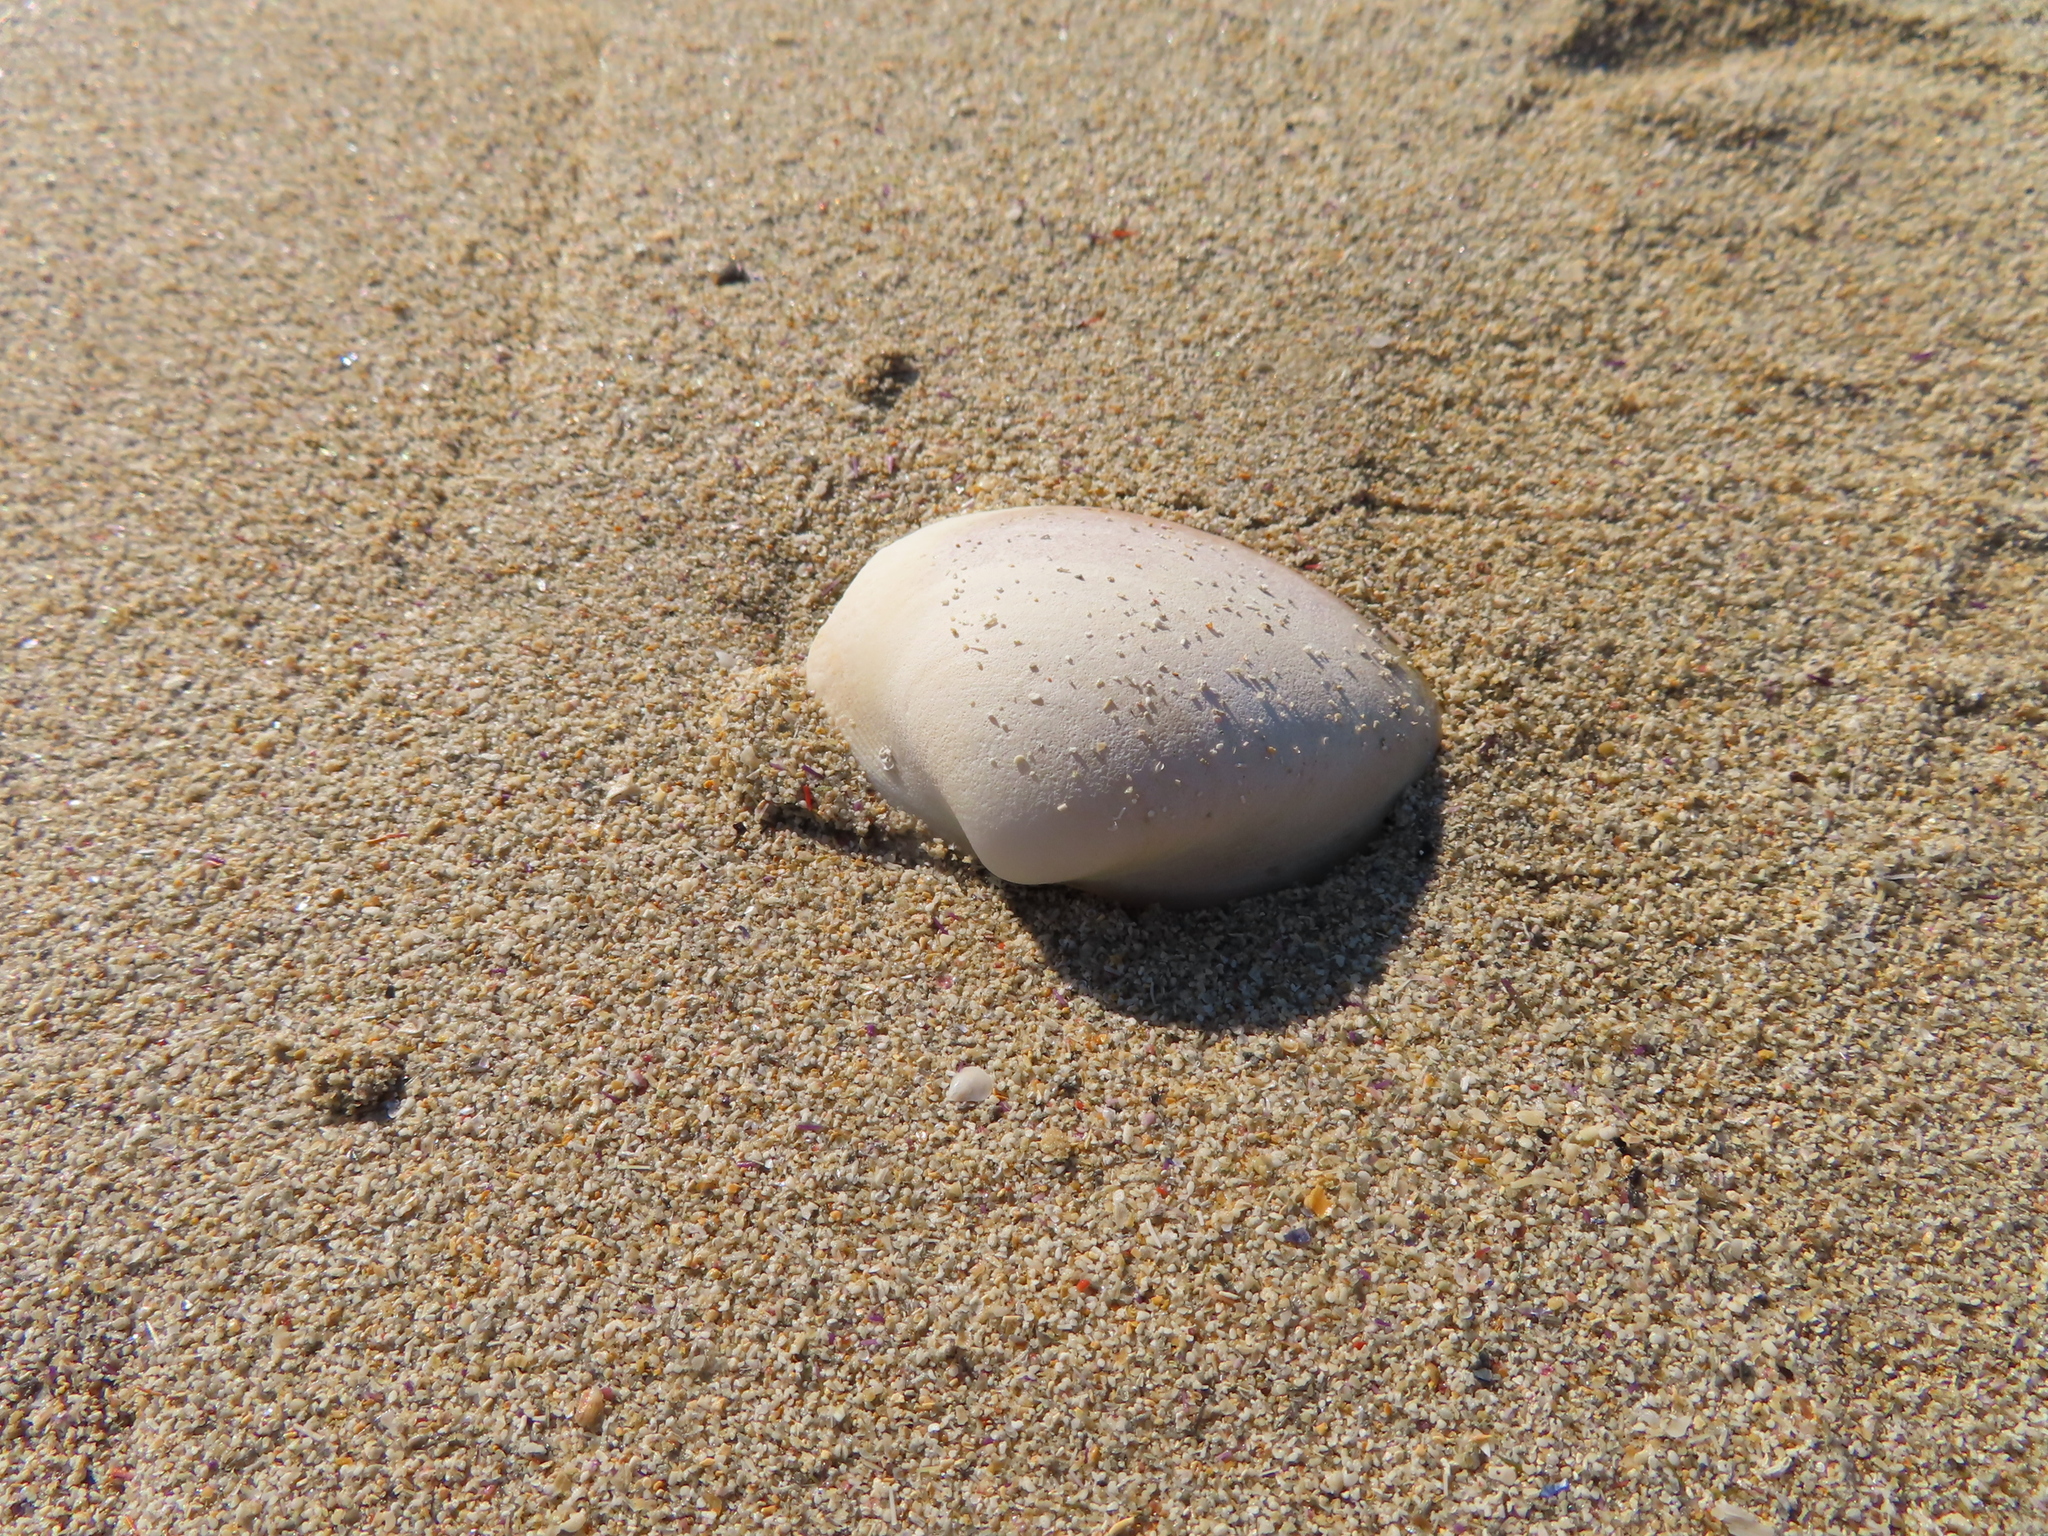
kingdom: Animalia
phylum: Mollusca
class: Bivalvia
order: Cardiida
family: Tellinidae
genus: Homalina
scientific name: Homalina trilatera
